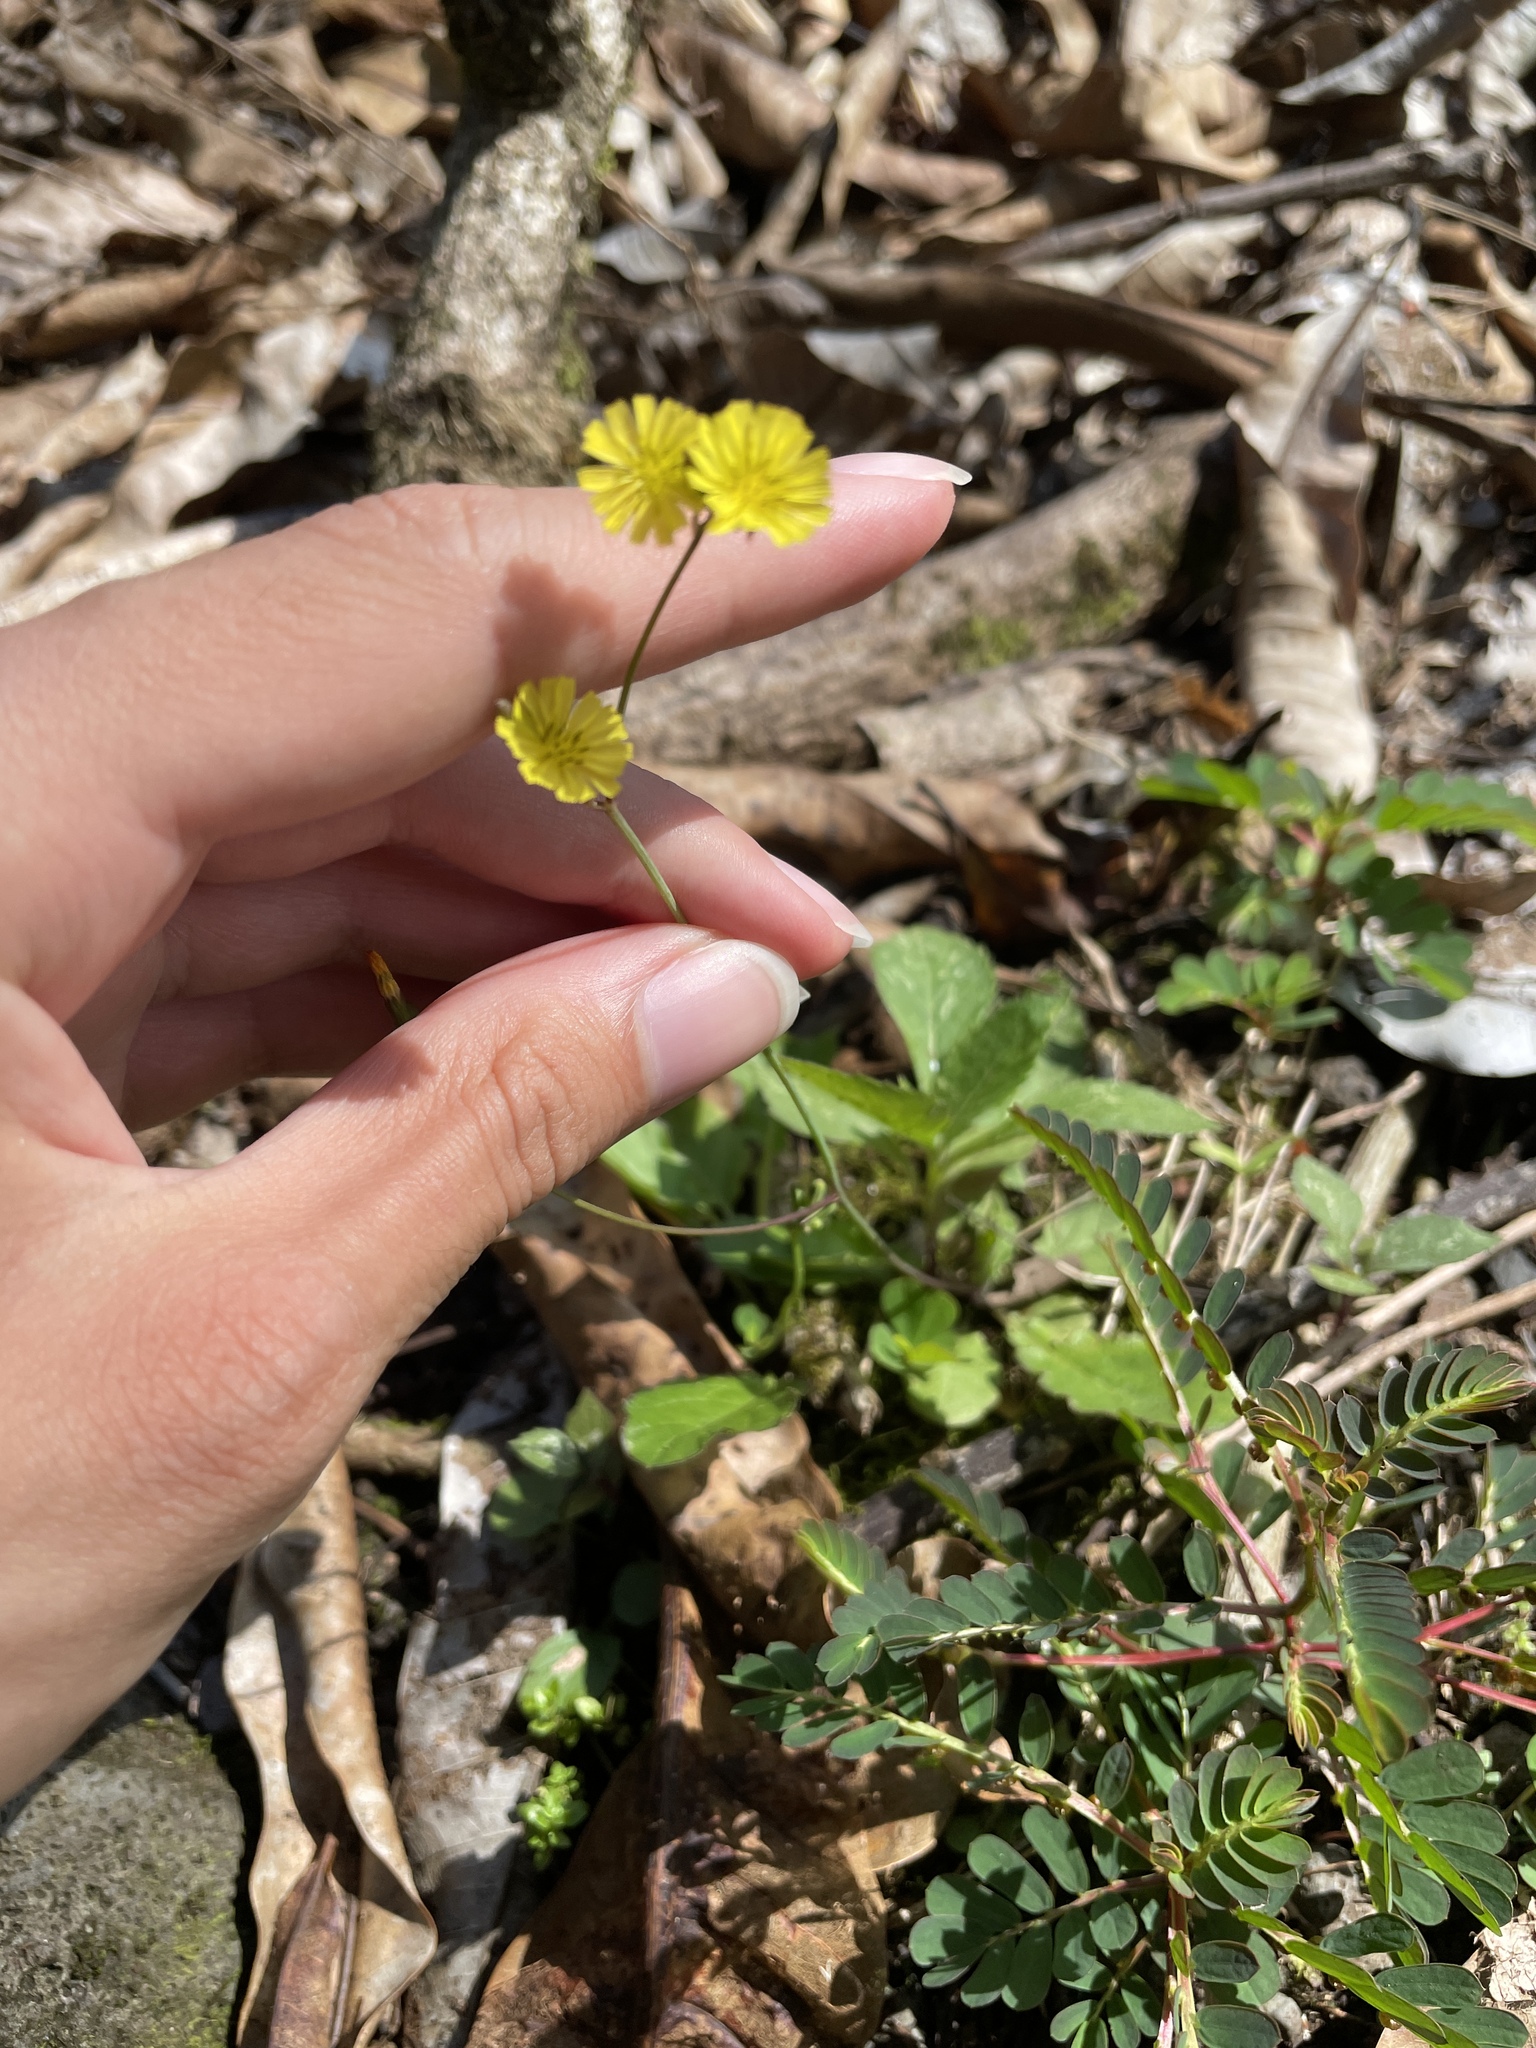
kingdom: Plantae
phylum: Tracheophyta
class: Magnoliopsida
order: Asterales
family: Asteraceae
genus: Youngia
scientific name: Youngia japonica
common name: Oriental false hawksbeard
